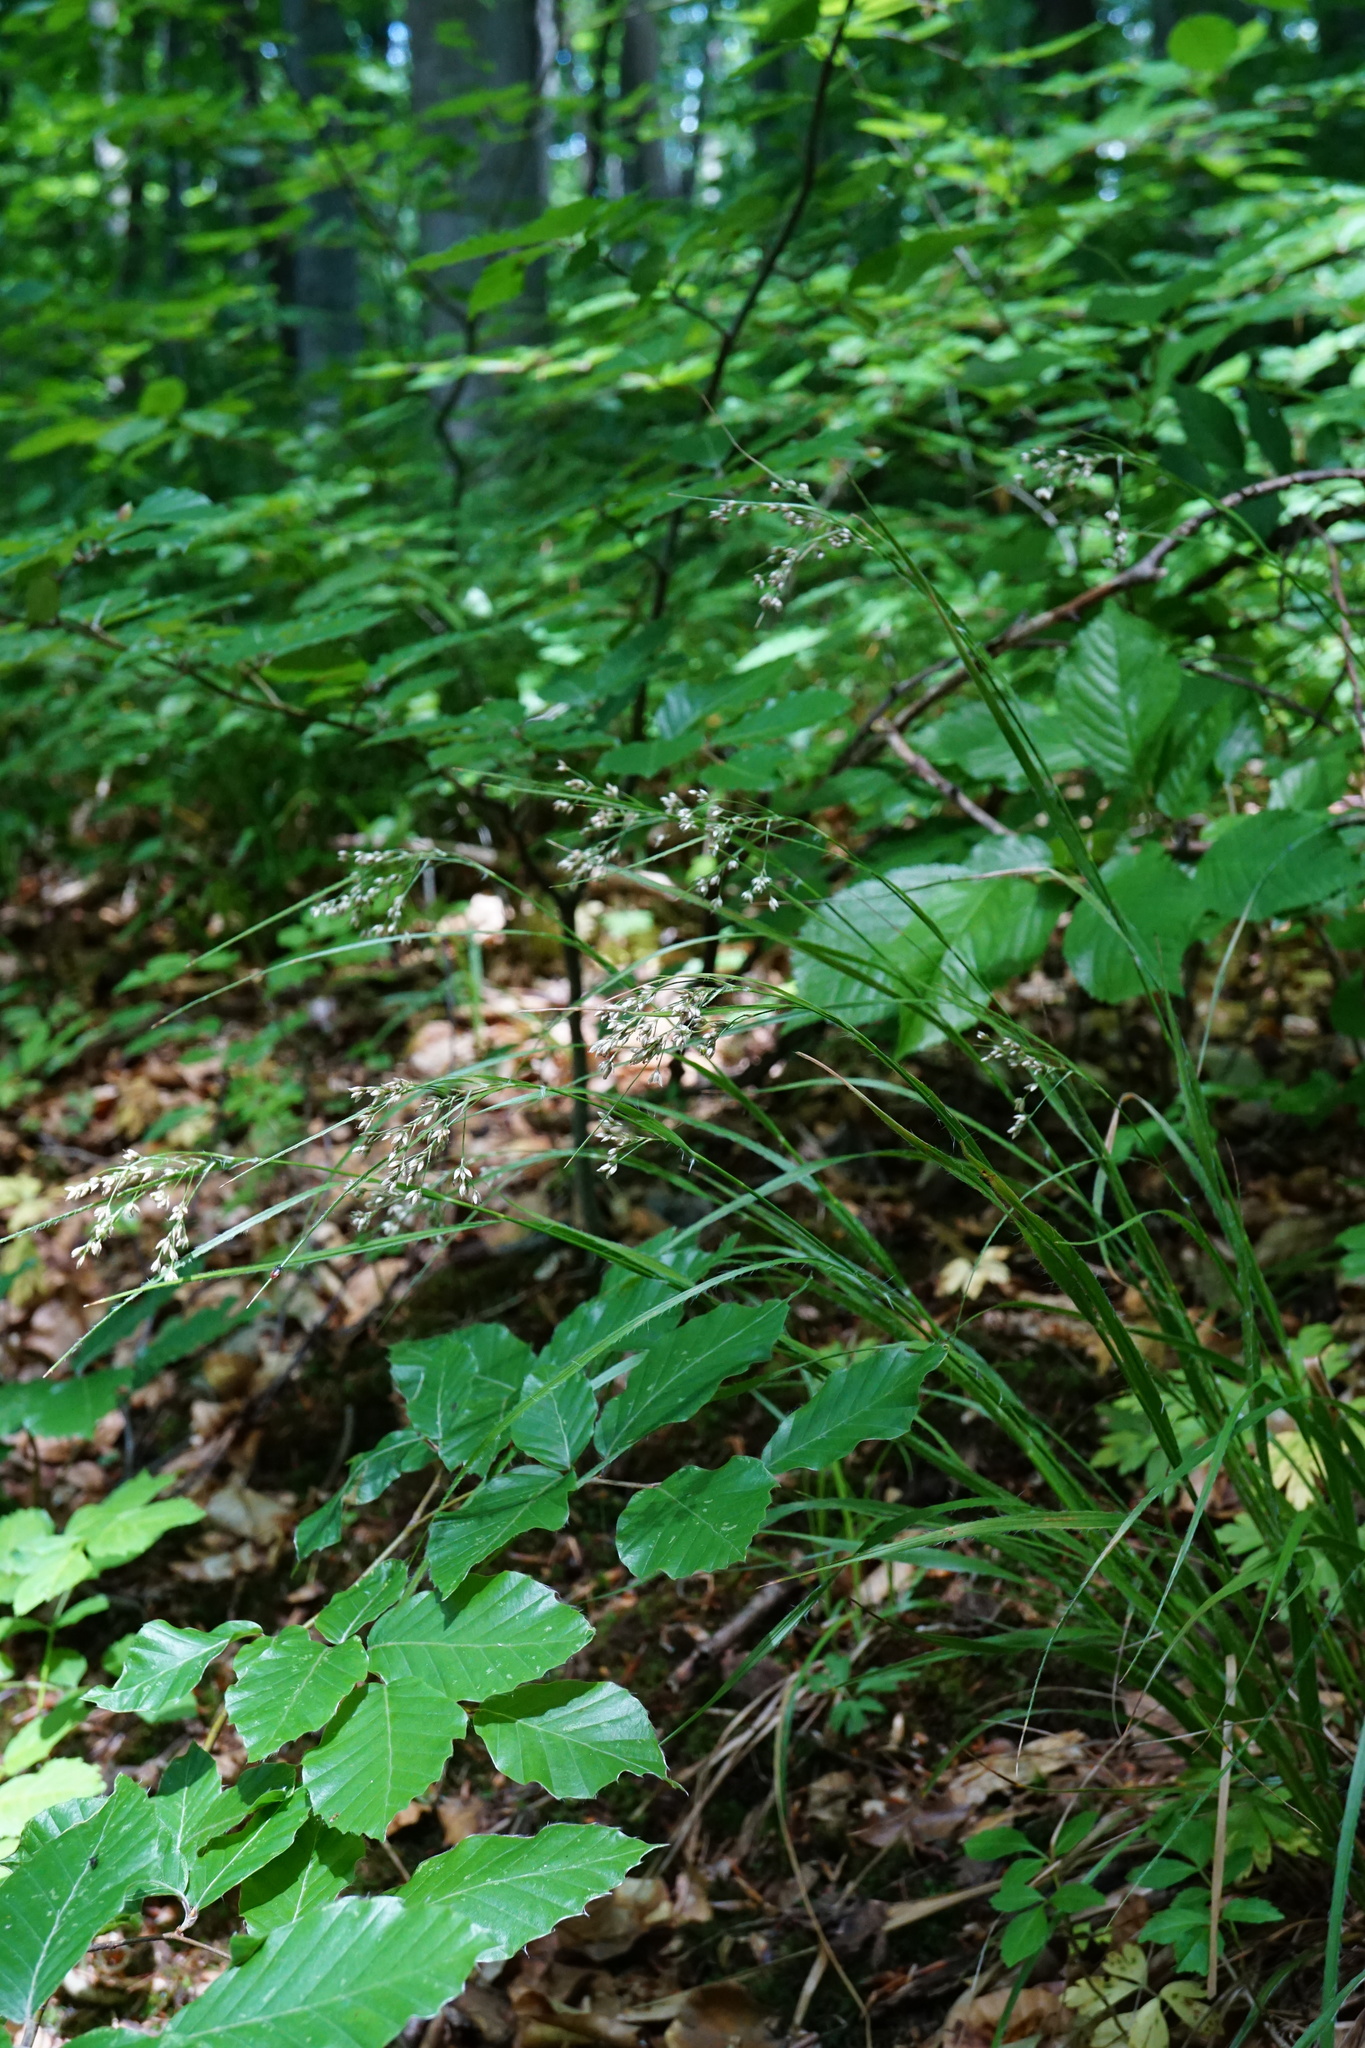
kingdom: Plantae
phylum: Tracheophyta
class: Liliopsida
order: Poales
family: Juncaceae
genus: Luzula
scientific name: Luzula luzuloides
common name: White wood-rush
